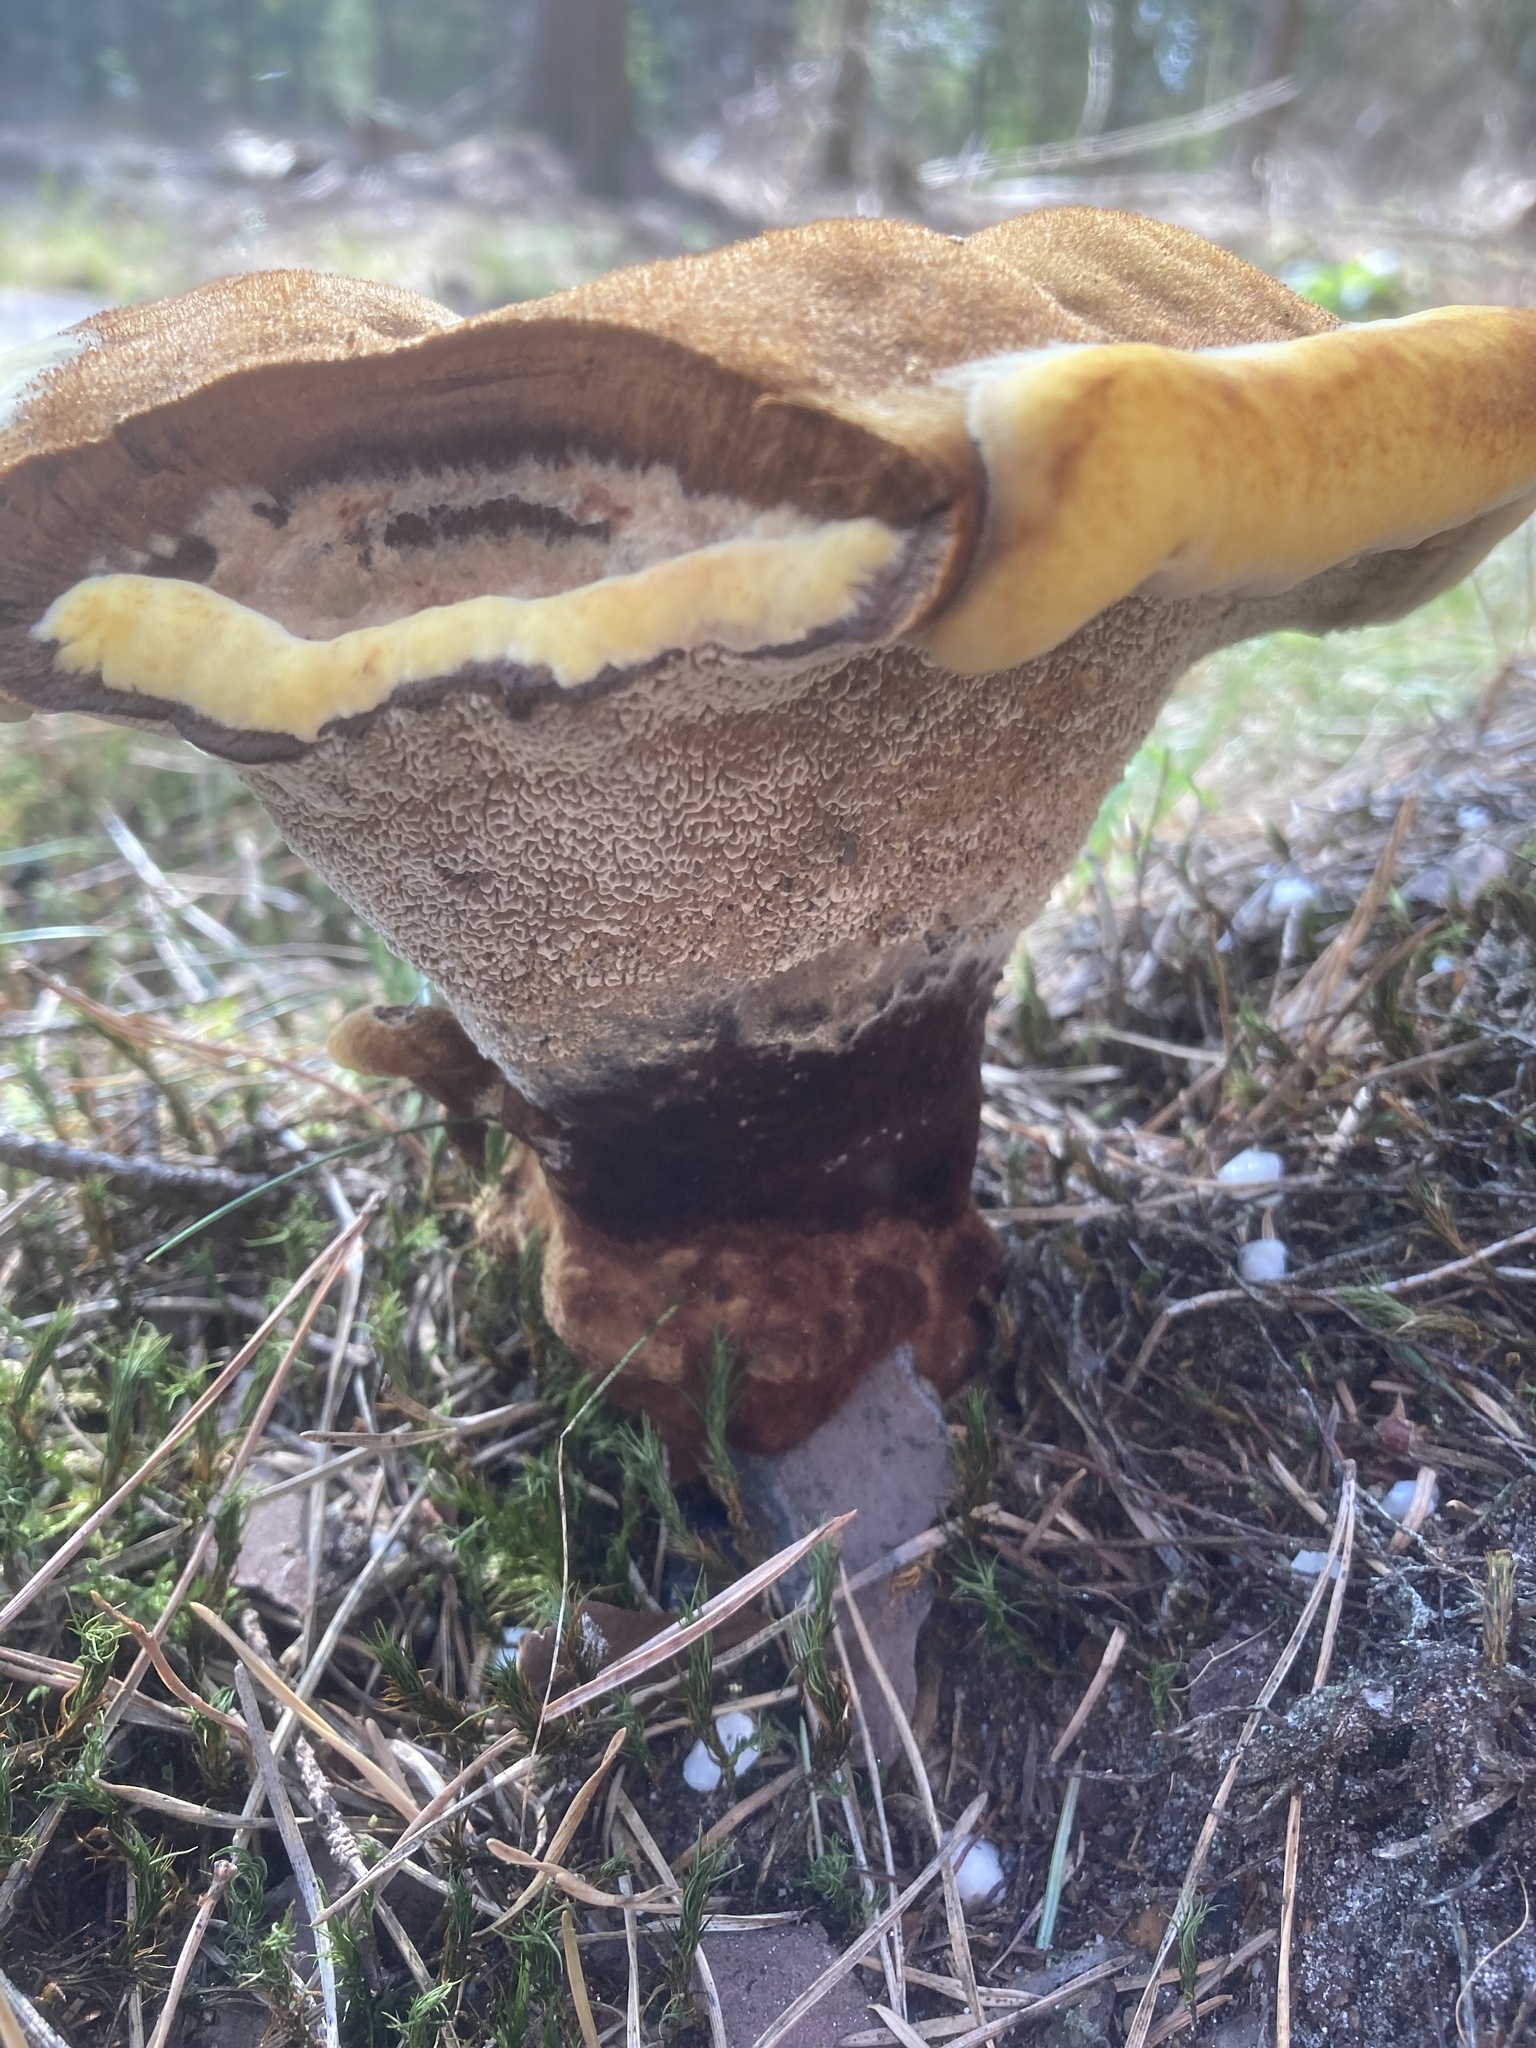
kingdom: Fungi
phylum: Basidiomycota
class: Agaricomycetes
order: Polyporales
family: Laetiporaceae
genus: Phaeolus
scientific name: Phaeolus schweinitzii
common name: Dyer's mazegill
